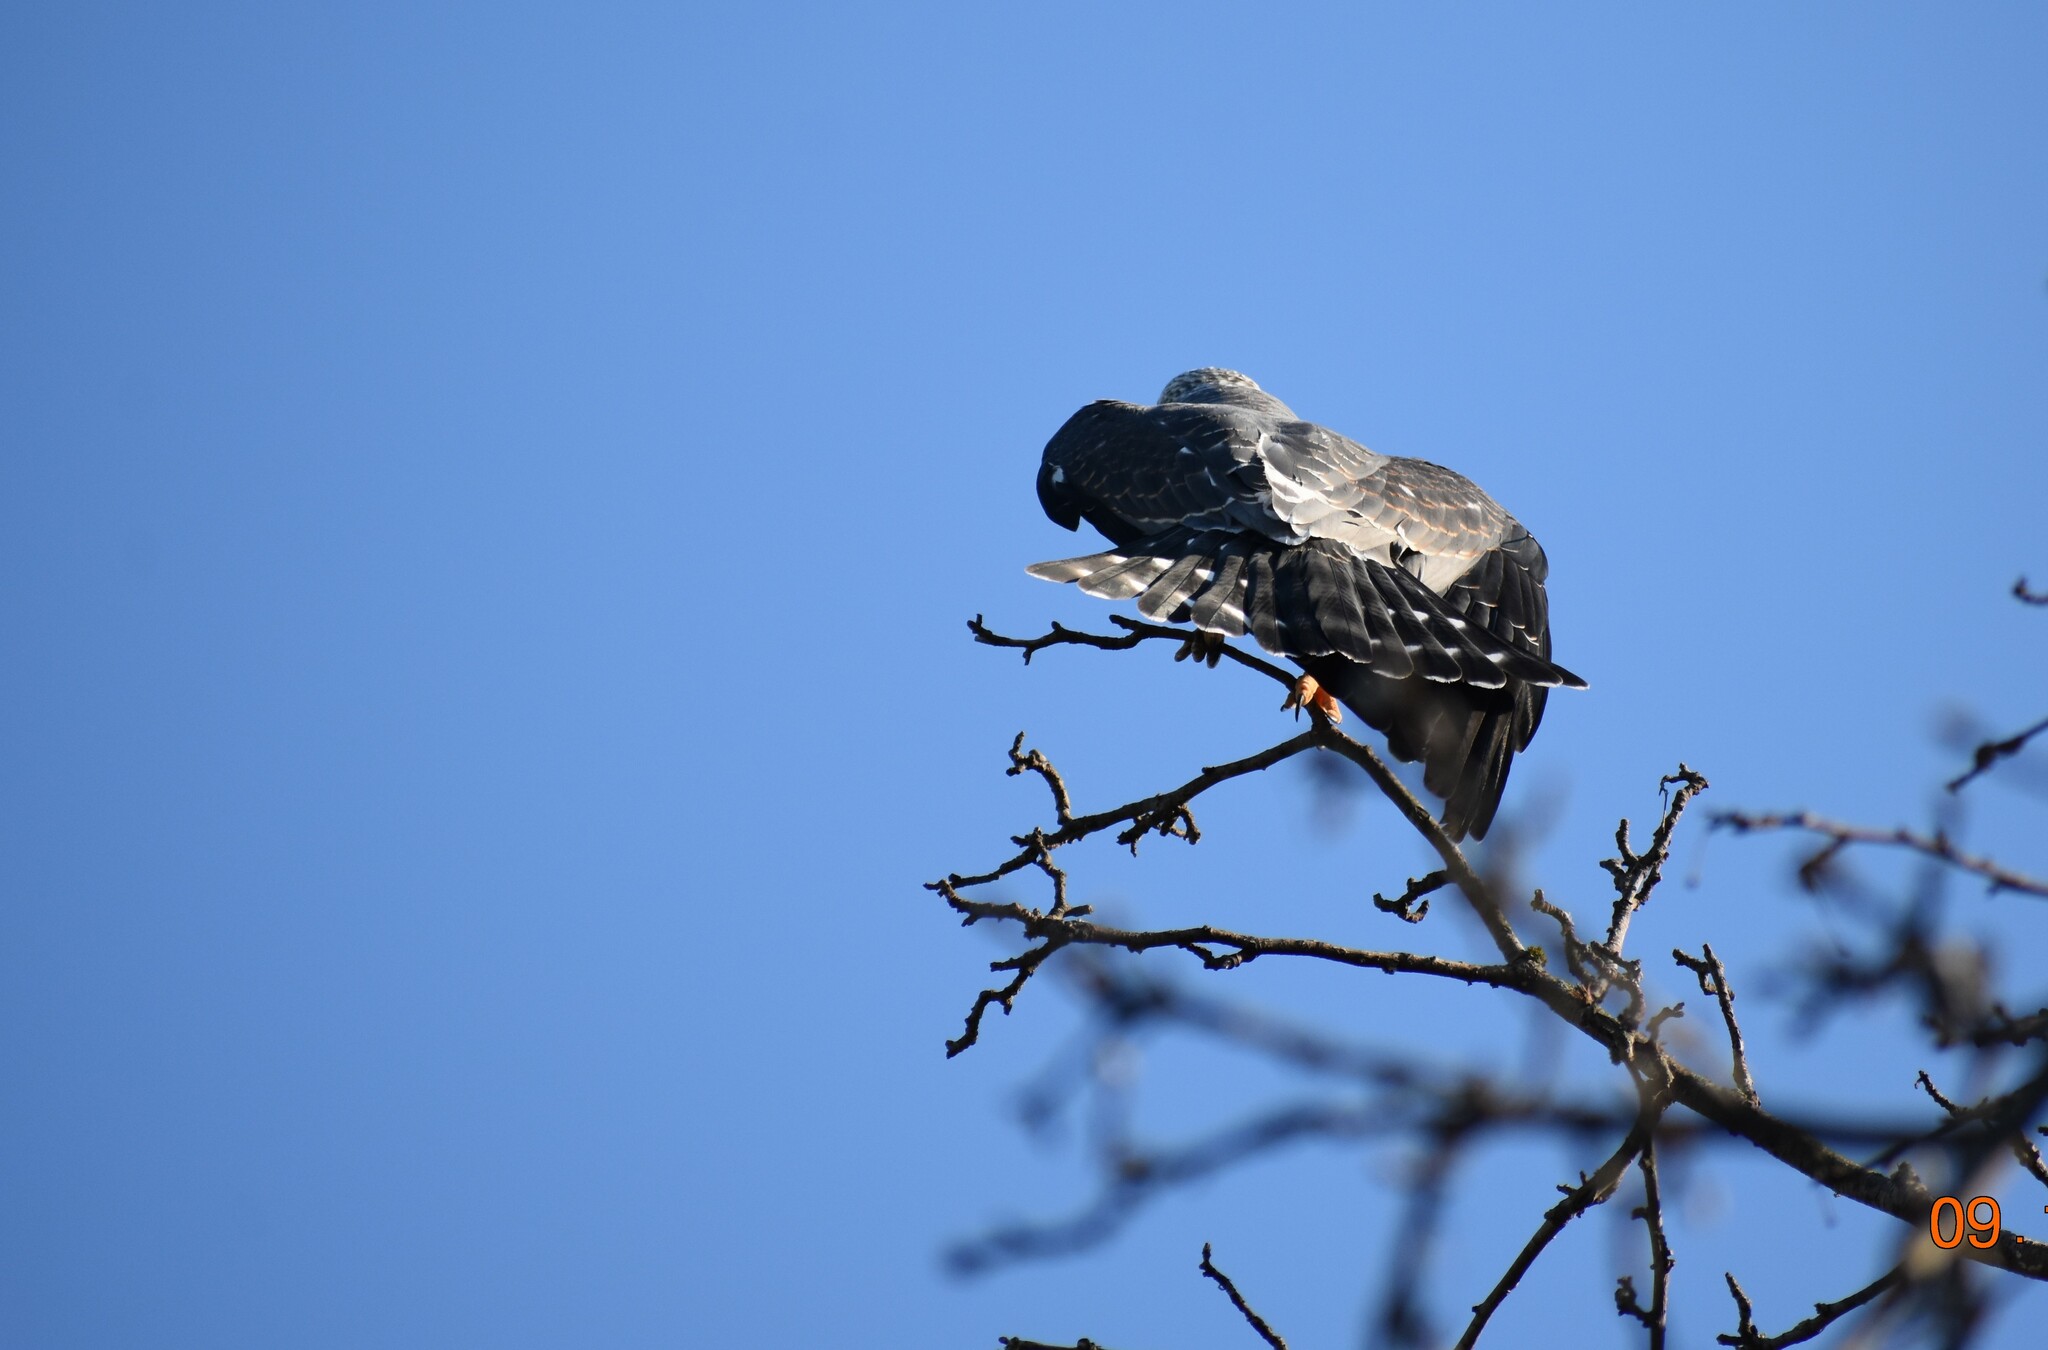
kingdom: Animalia
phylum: Chordata
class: Aves
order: Accipitriformes
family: Accipitridae
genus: Ictinia
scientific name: Ictinia mississippiensis
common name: Mississippi kite
